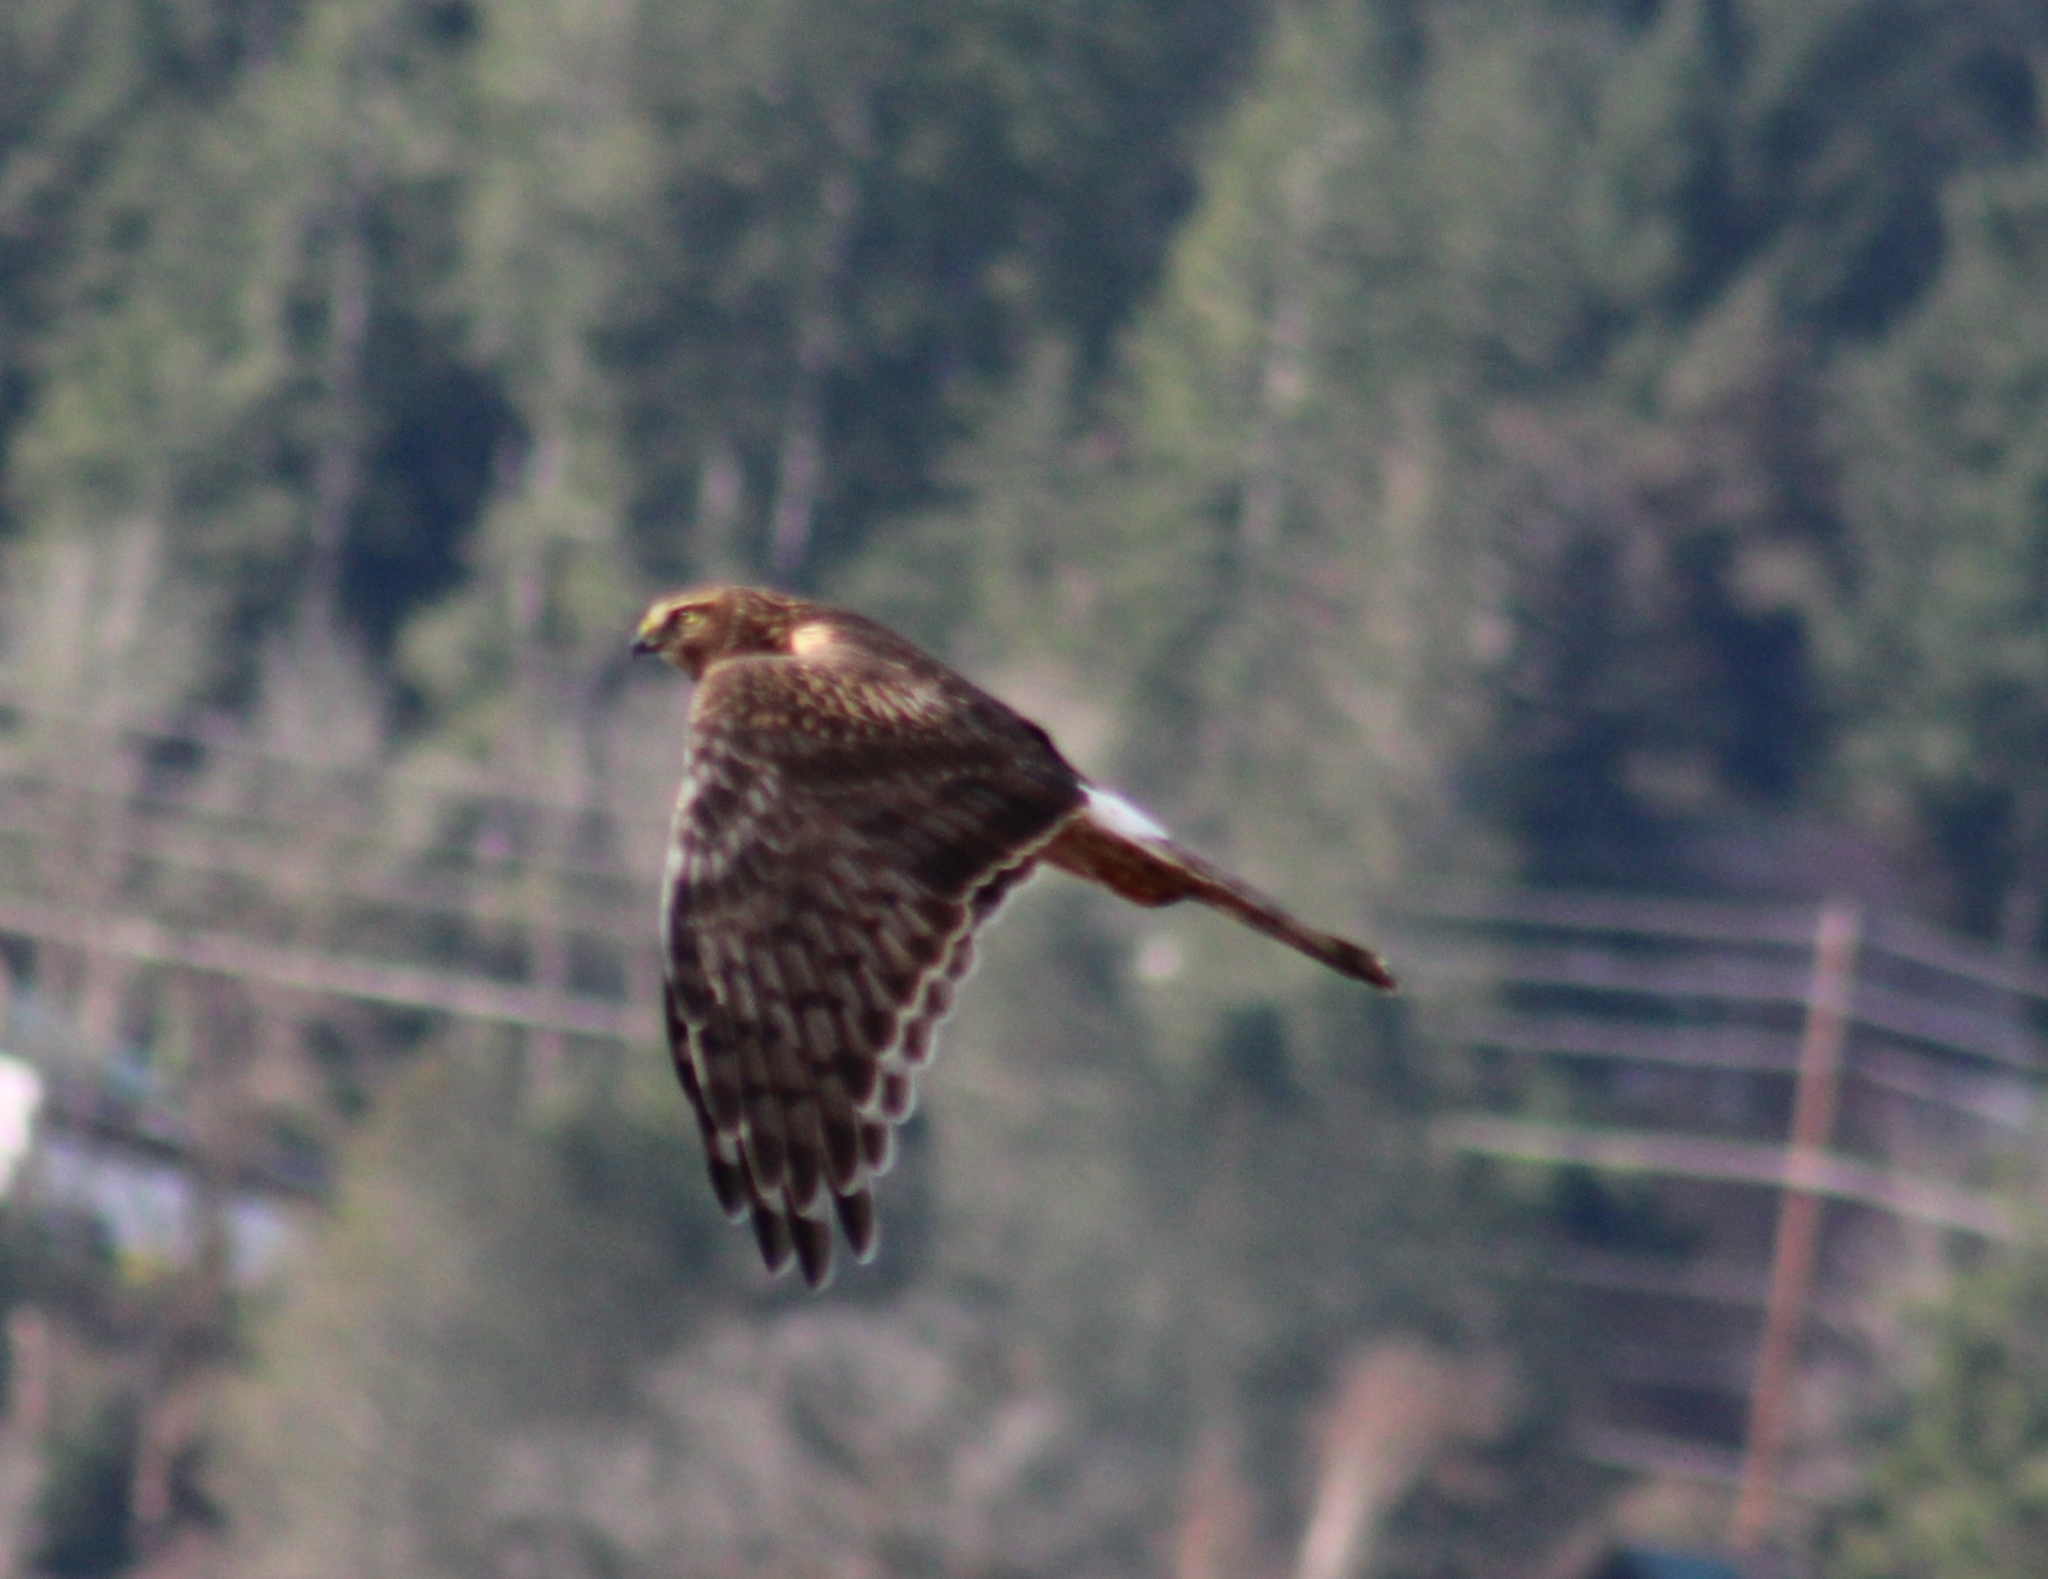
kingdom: Animalia
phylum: Chordata
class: Aves
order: Accipitriformes
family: Accipitridae
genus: Circus
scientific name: Circus cyaneus
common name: Hen harrier
